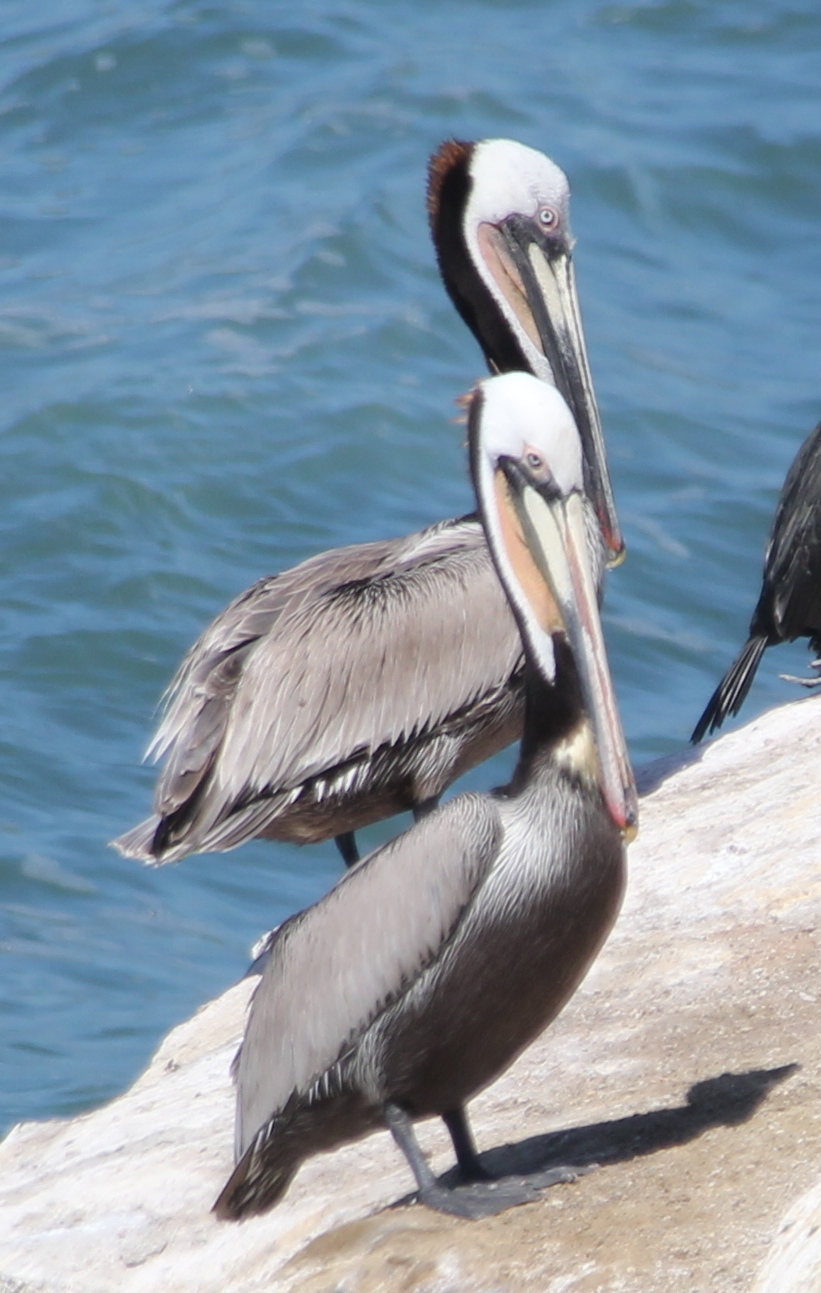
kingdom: Animalia
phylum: Chordata
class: Aves
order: Pelecaniformes
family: Pelecanidae
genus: Pelecanus
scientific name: Pelecanus occidentalis
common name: Brown pelican
